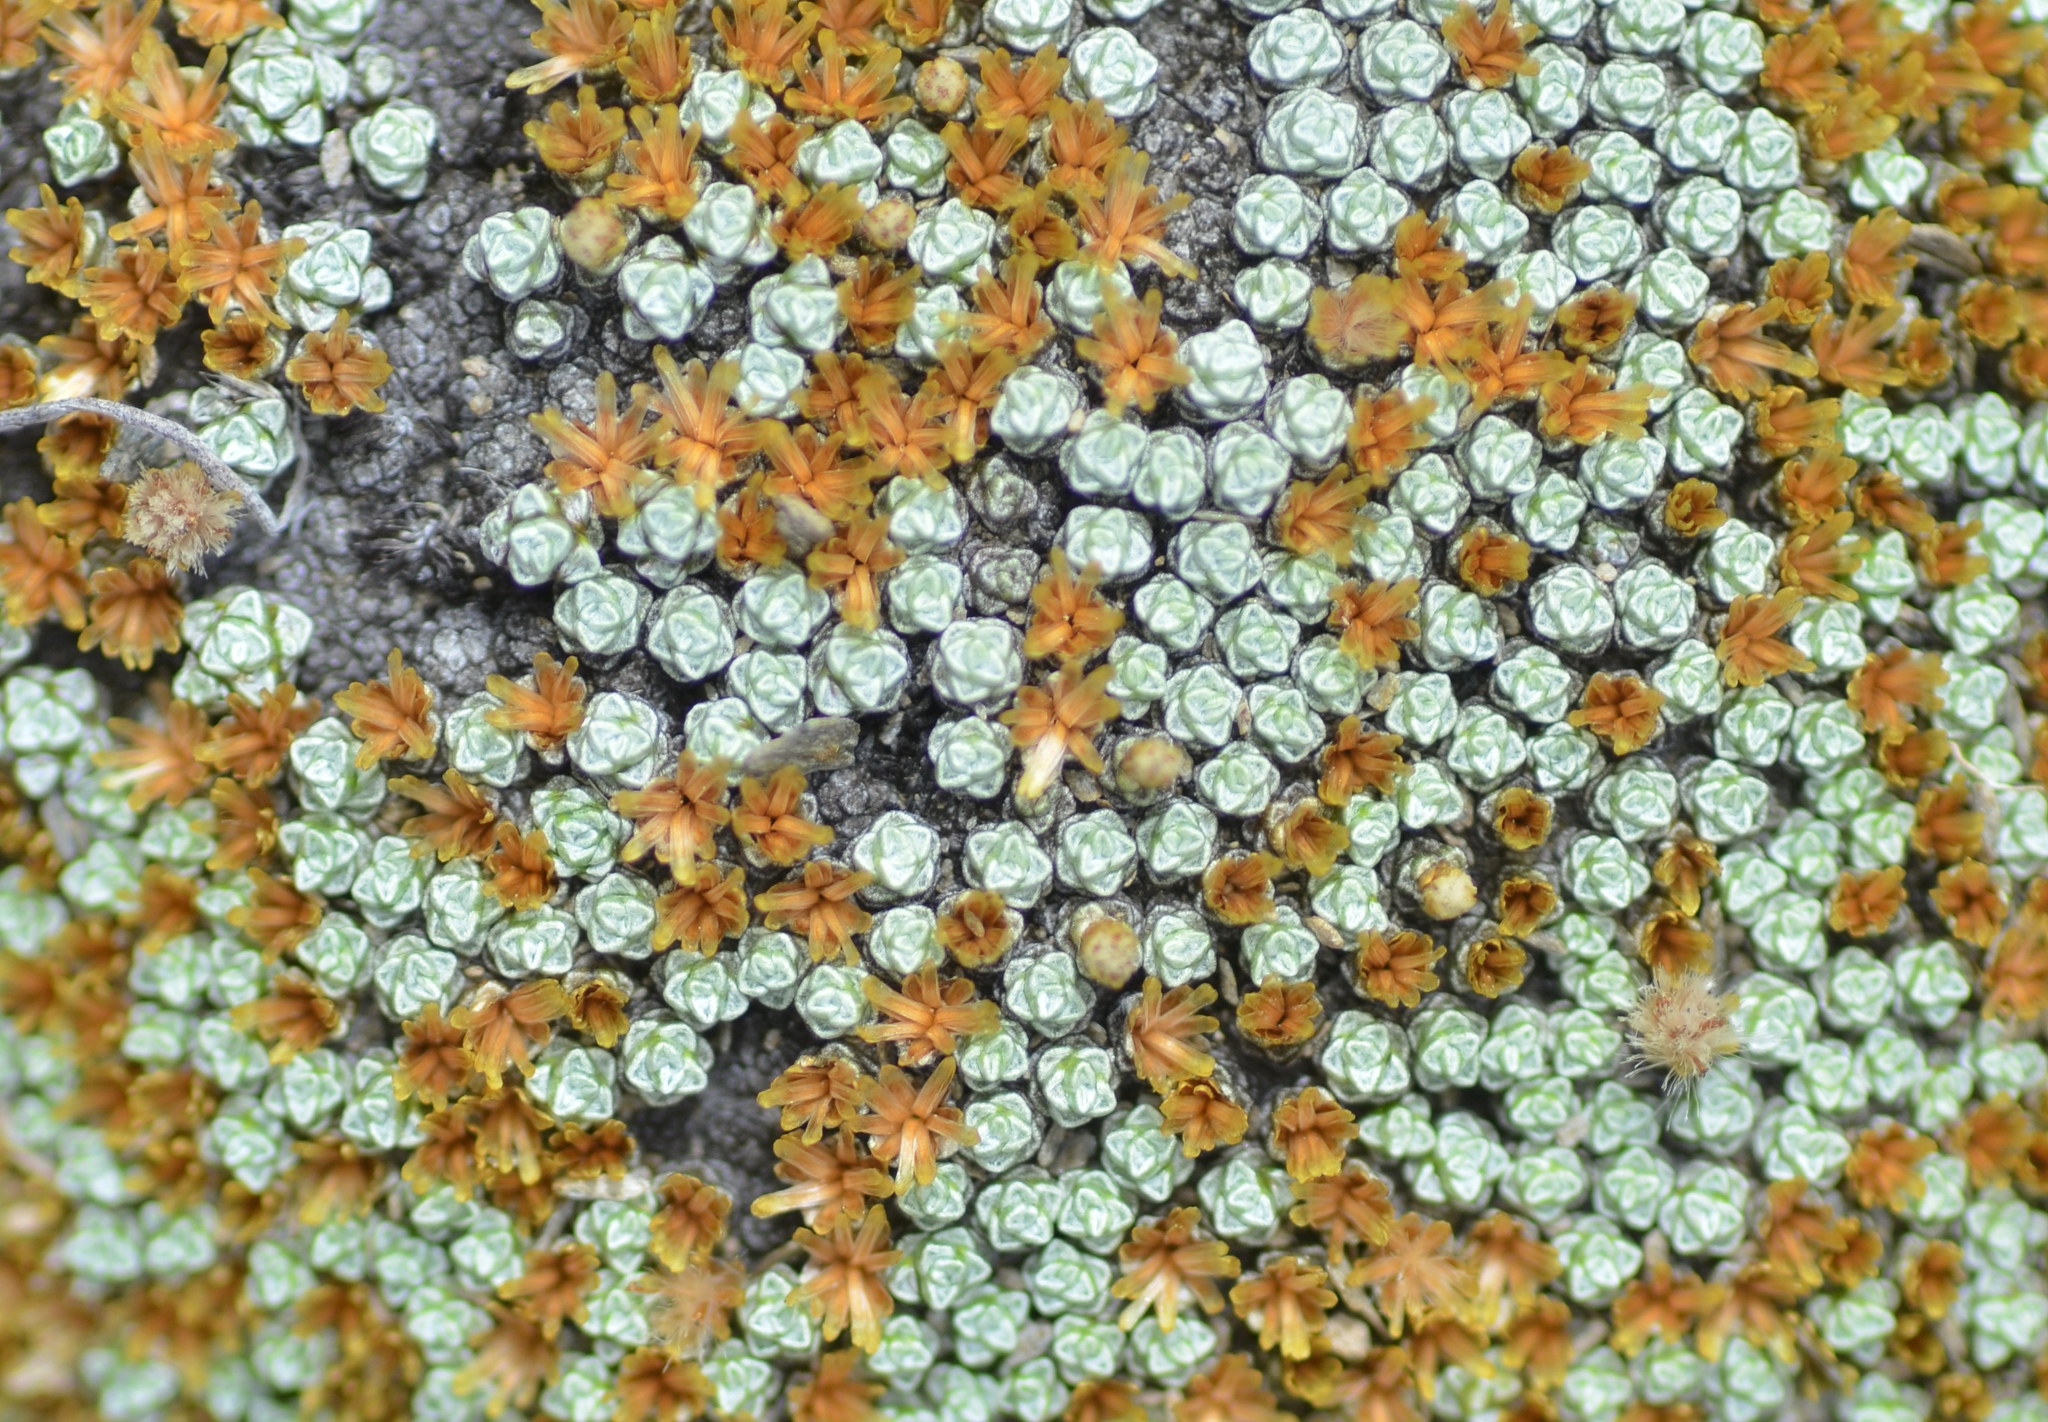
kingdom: Plantae
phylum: Tracheophyta
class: Magnoliopsida
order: Asterales
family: Asteraceae
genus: Raoulia
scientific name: Raoulia australis
